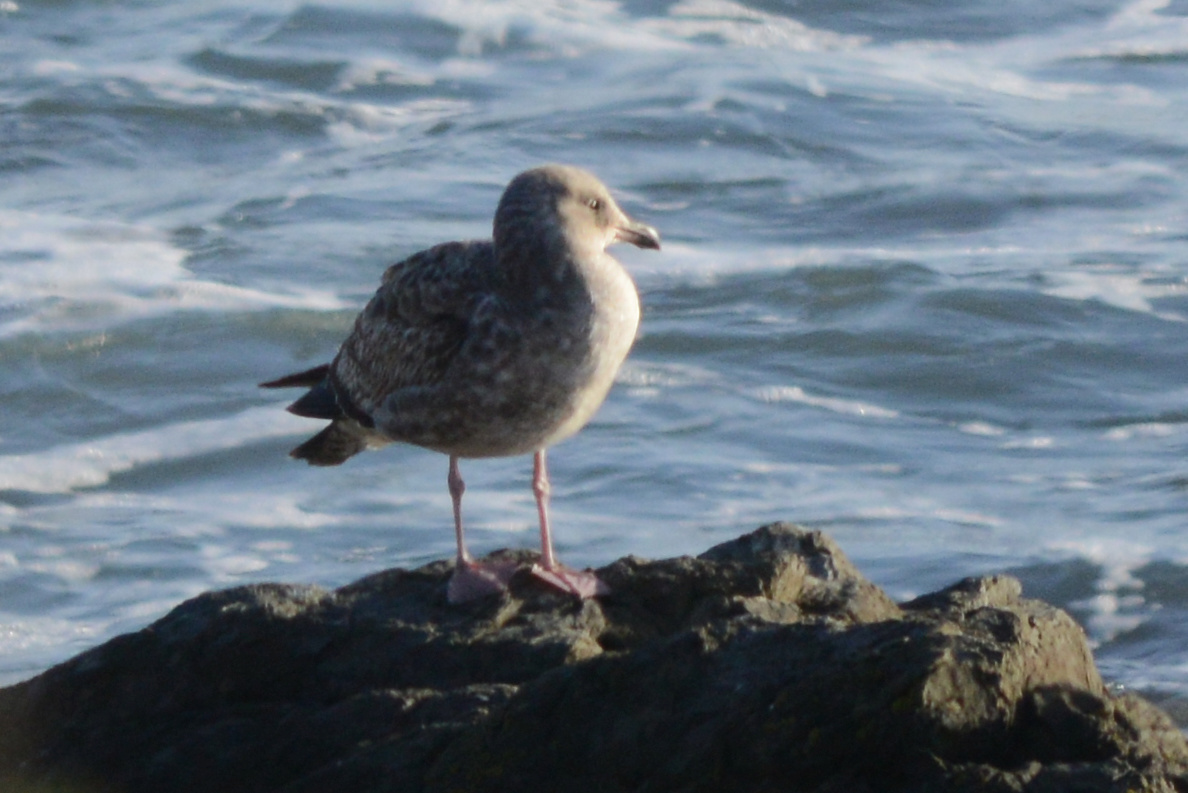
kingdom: Animalia
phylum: Chordata
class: Aves
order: Charadriiformes
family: Laridae
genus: Larus
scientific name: Larus occidentalis
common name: Western gull
